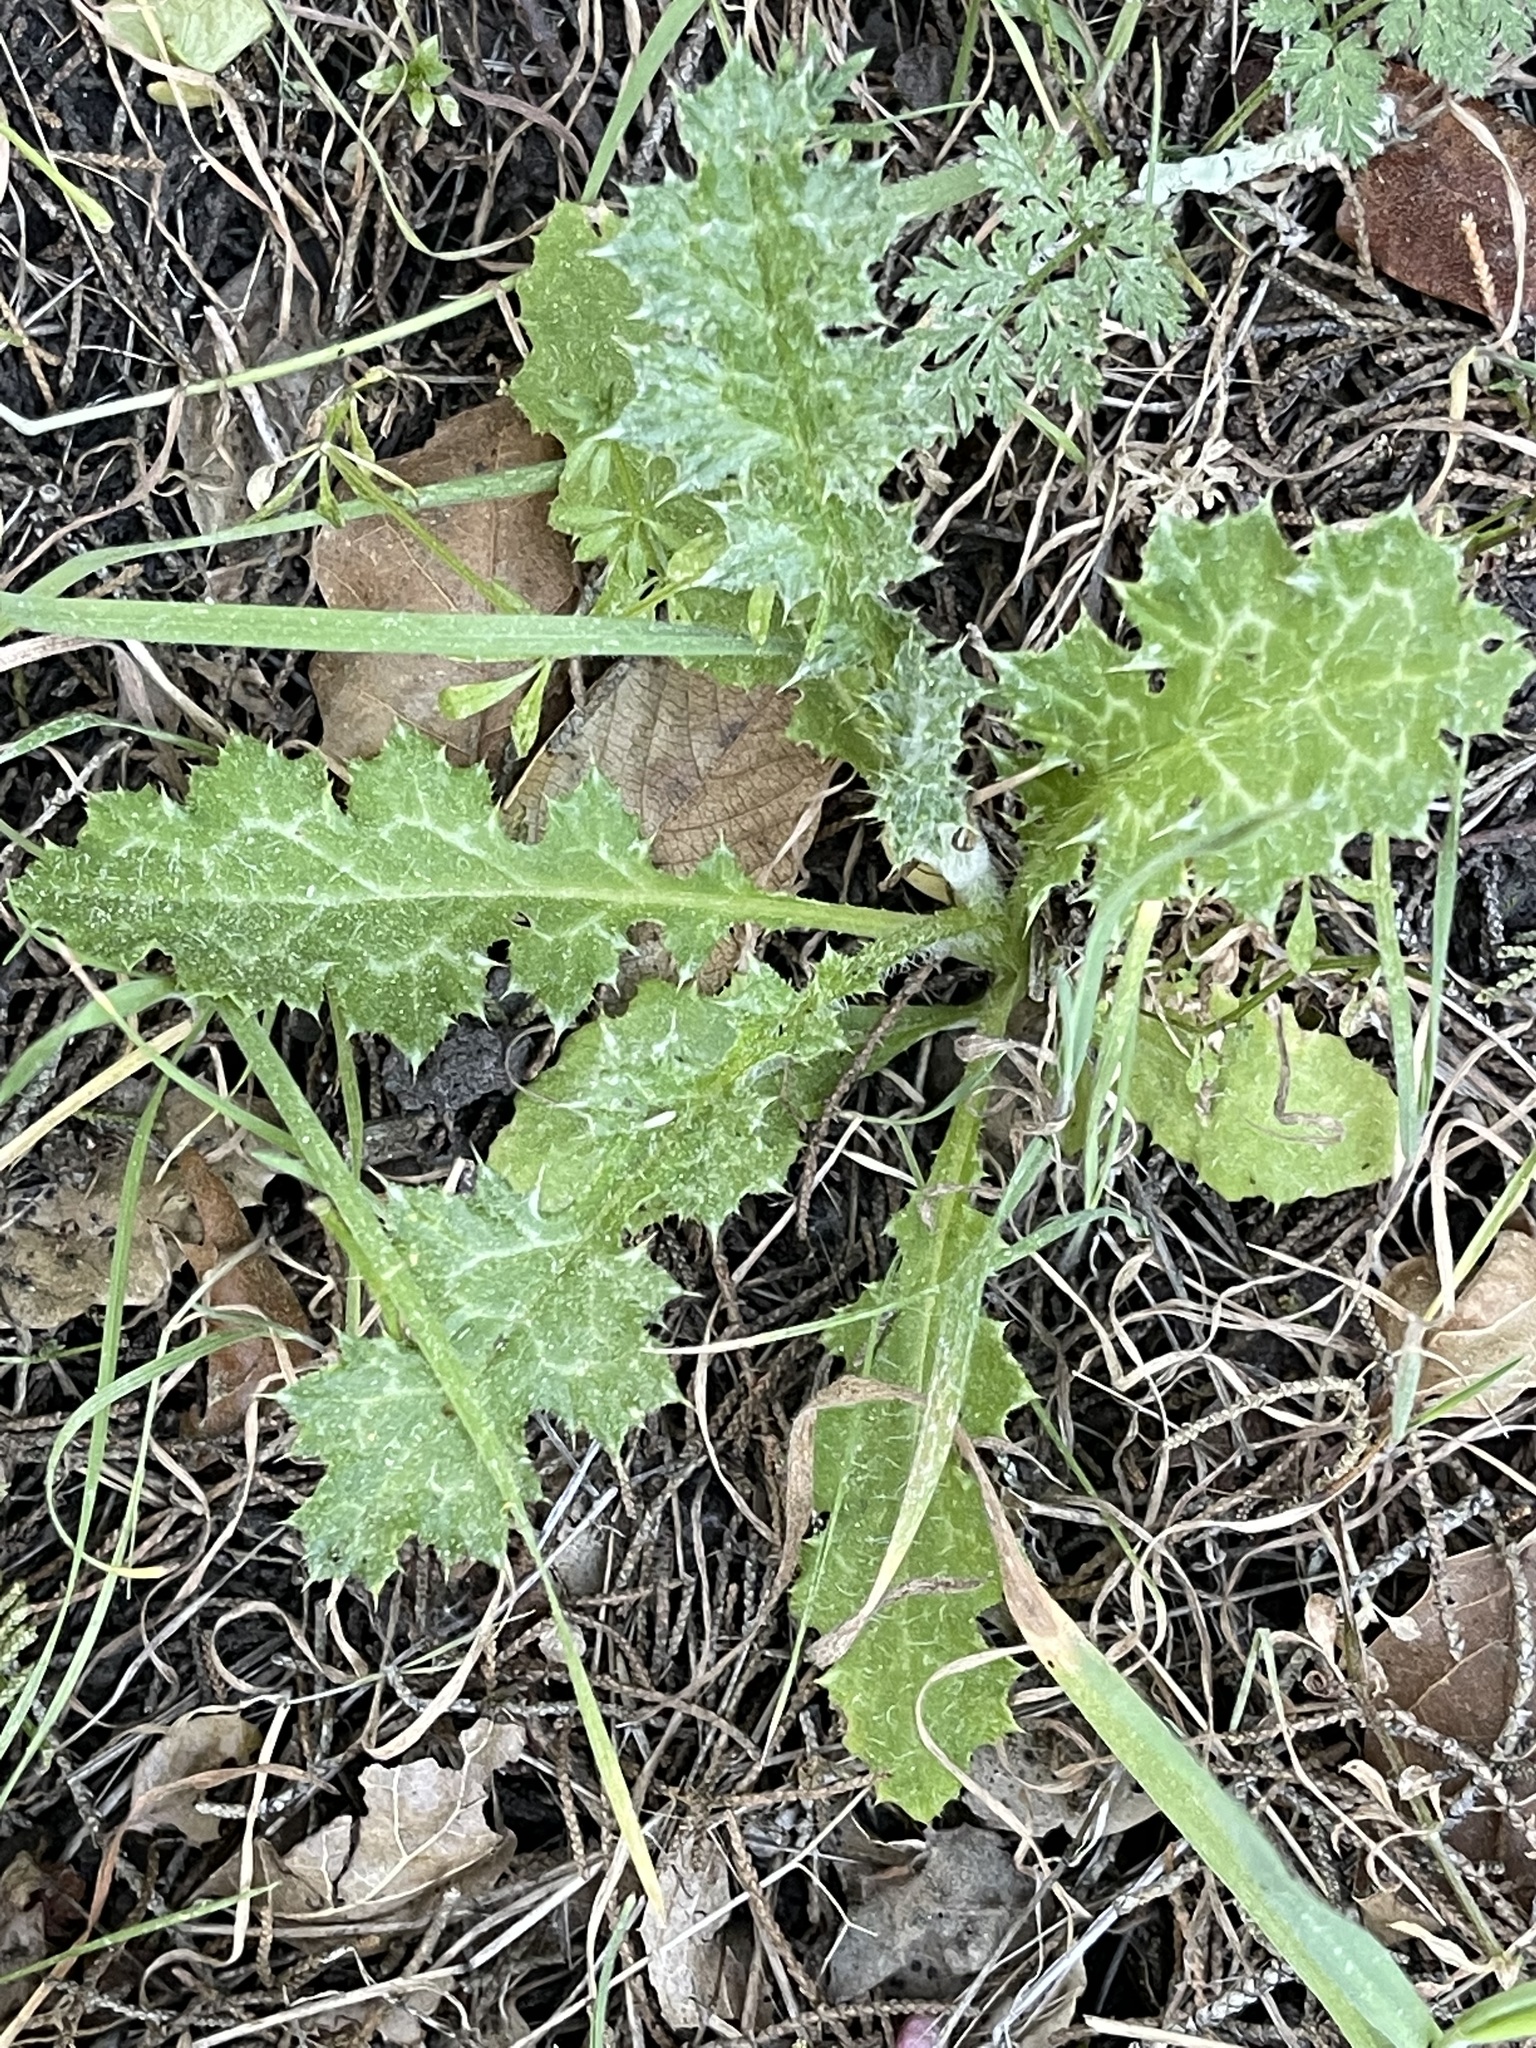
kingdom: Plantae
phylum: Tracheophyta
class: Magnoliopsida
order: Asterales
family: Asteraceae
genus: Carduus
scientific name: Carduus pycnocephalus
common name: Plymouth thistle
